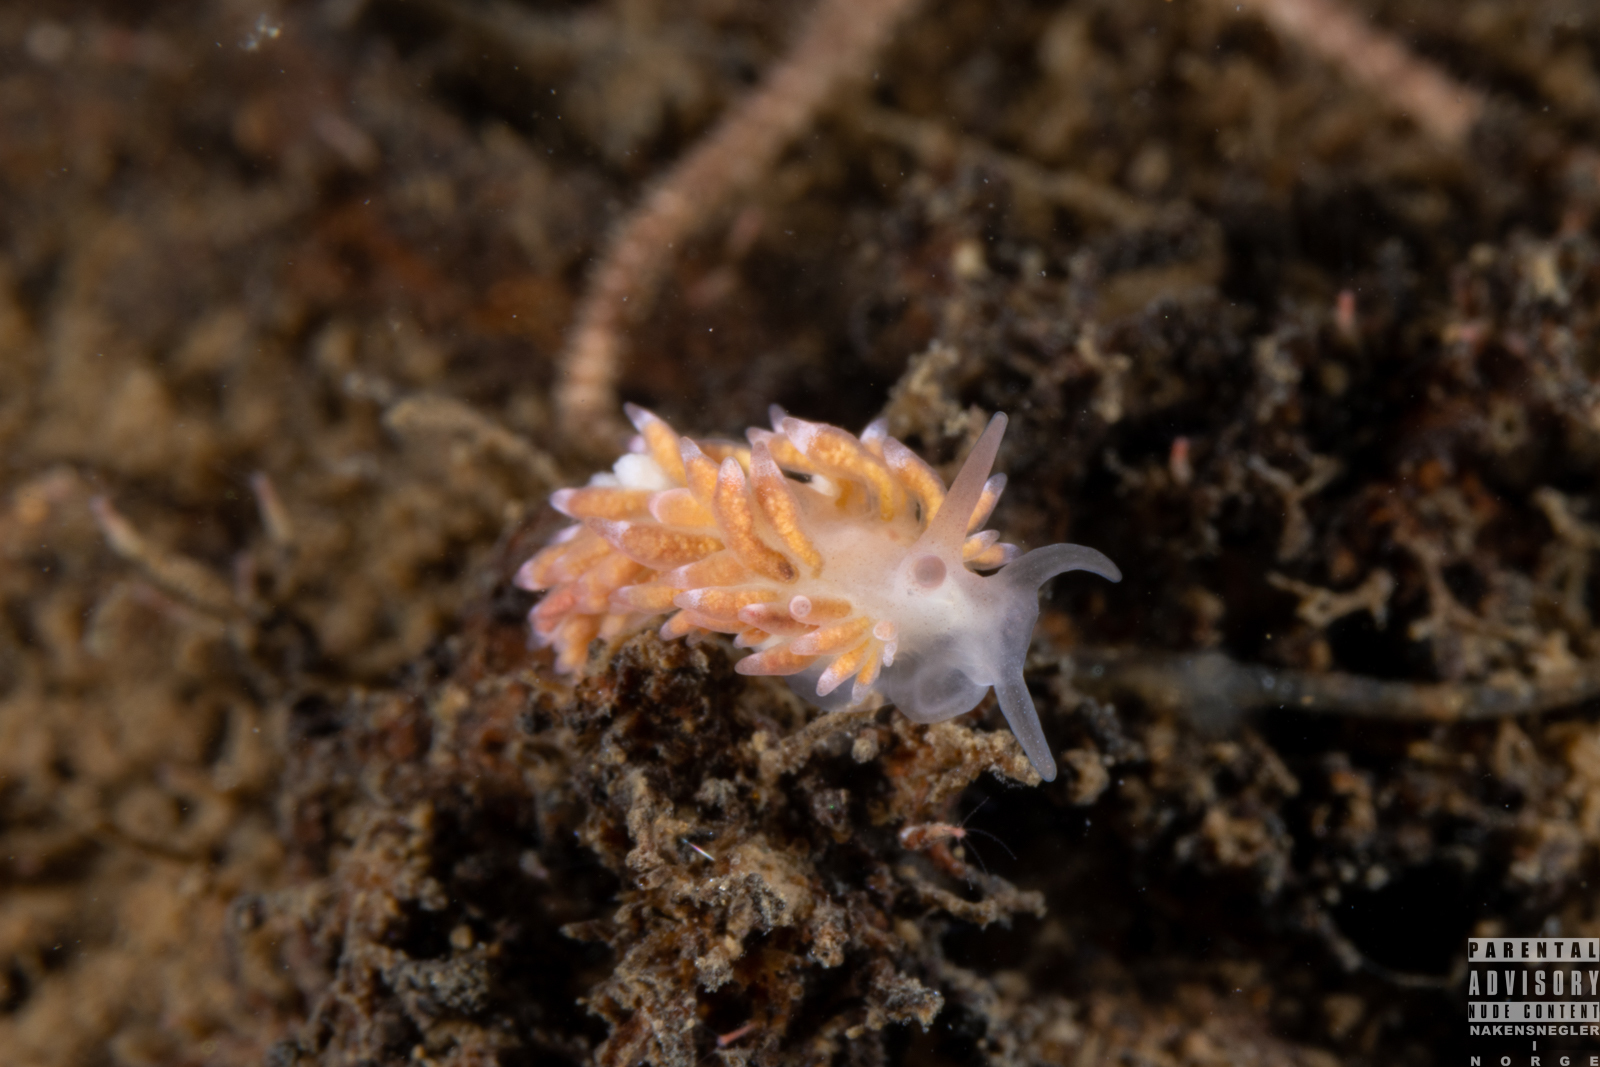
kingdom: Animalia
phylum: Mollusca
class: Gastropoda
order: Nudibranchia
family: Trinchesiidae
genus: Catriona
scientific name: Catriona aurantia
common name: Corange-tip cuthona
